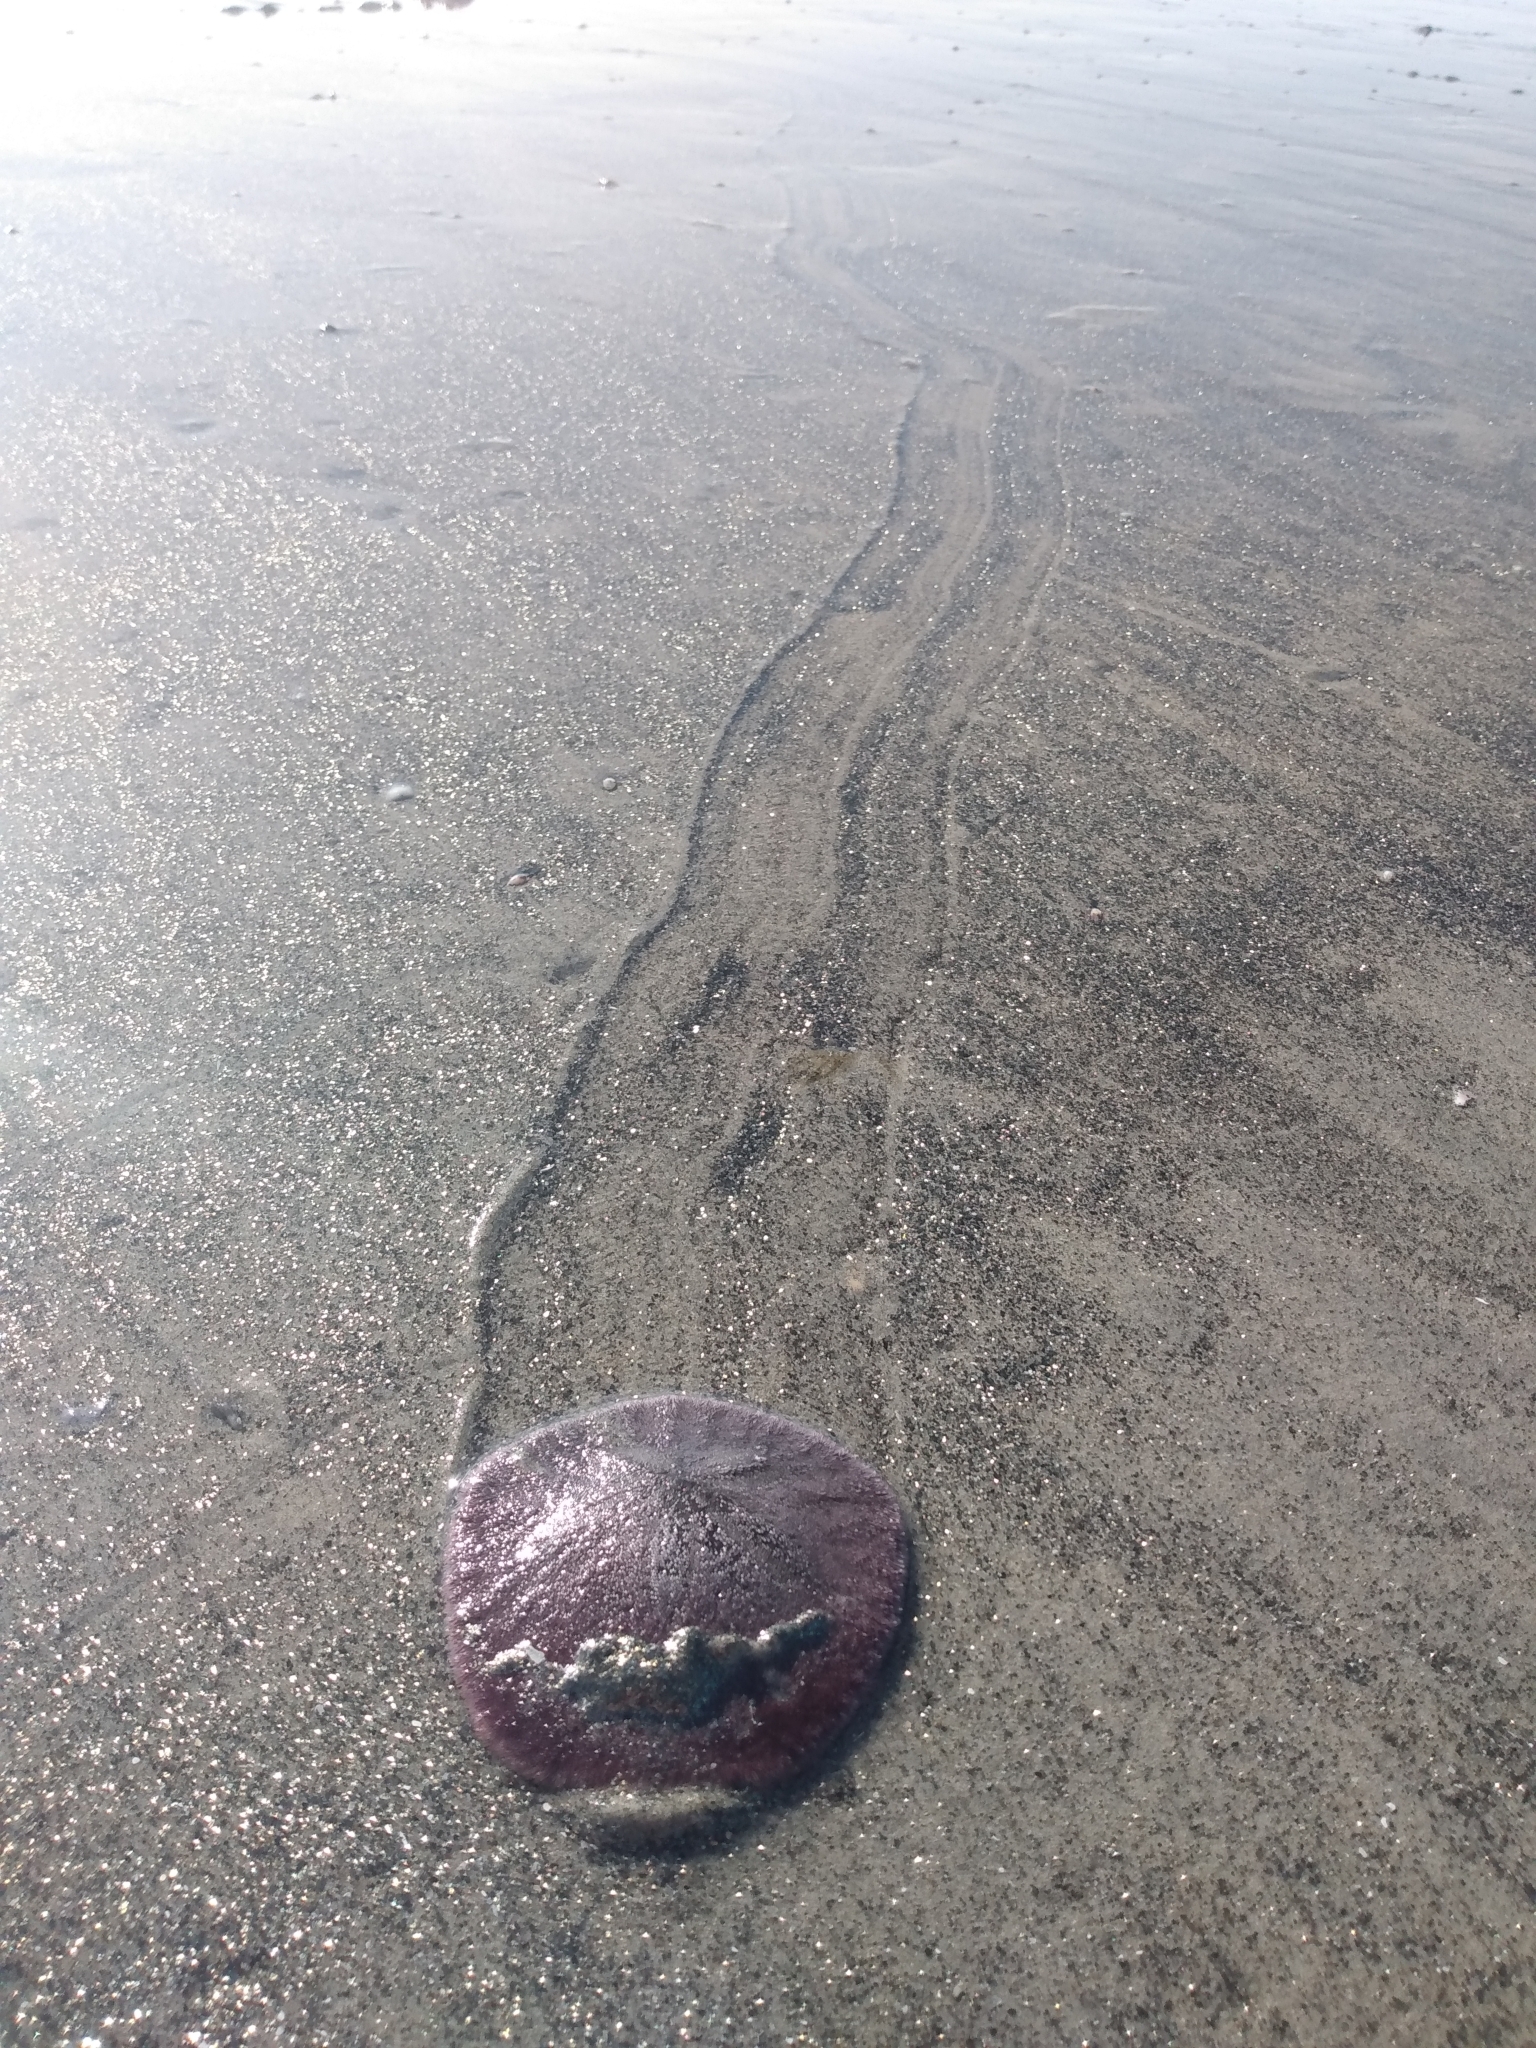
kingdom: Animalia
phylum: Echinodermata
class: Echinoidea
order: Echinolampadacea
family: Dendrasteridae
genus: Dendraster
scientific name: Dendraster excentricus
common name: Eccentric sand dollar sea urchin
